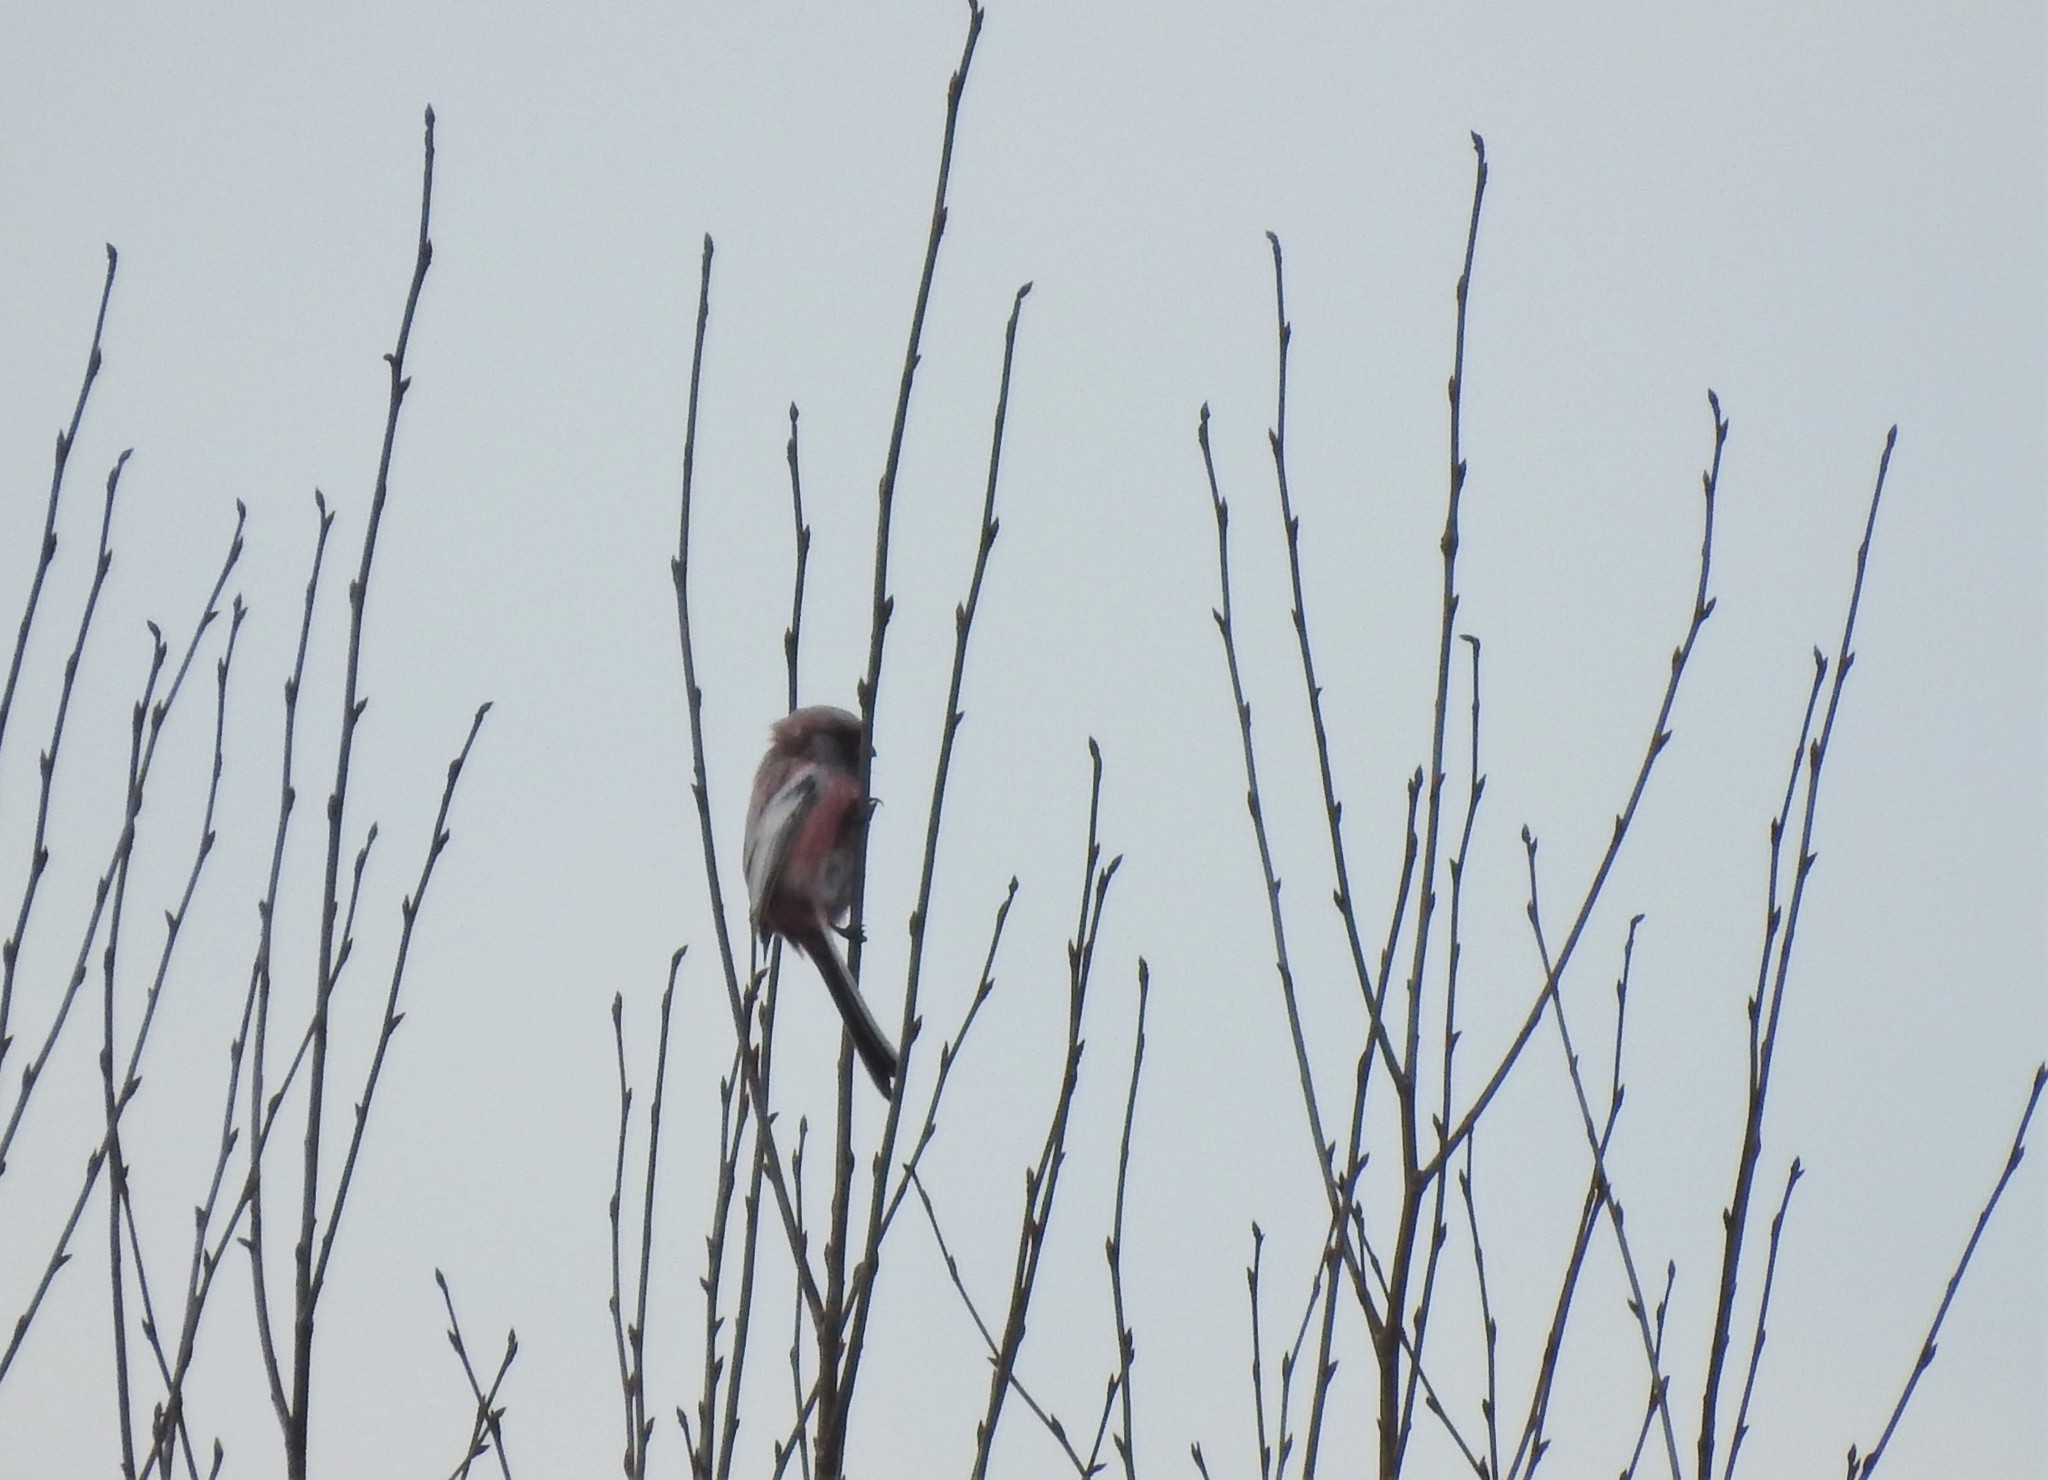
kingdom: Animalia
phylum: Chordata
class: Aves
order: Passeriformes
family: Fringillidae
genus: Carpodacus
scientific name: Carpodacus sibiricus
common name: Long-tailed rosefinch
